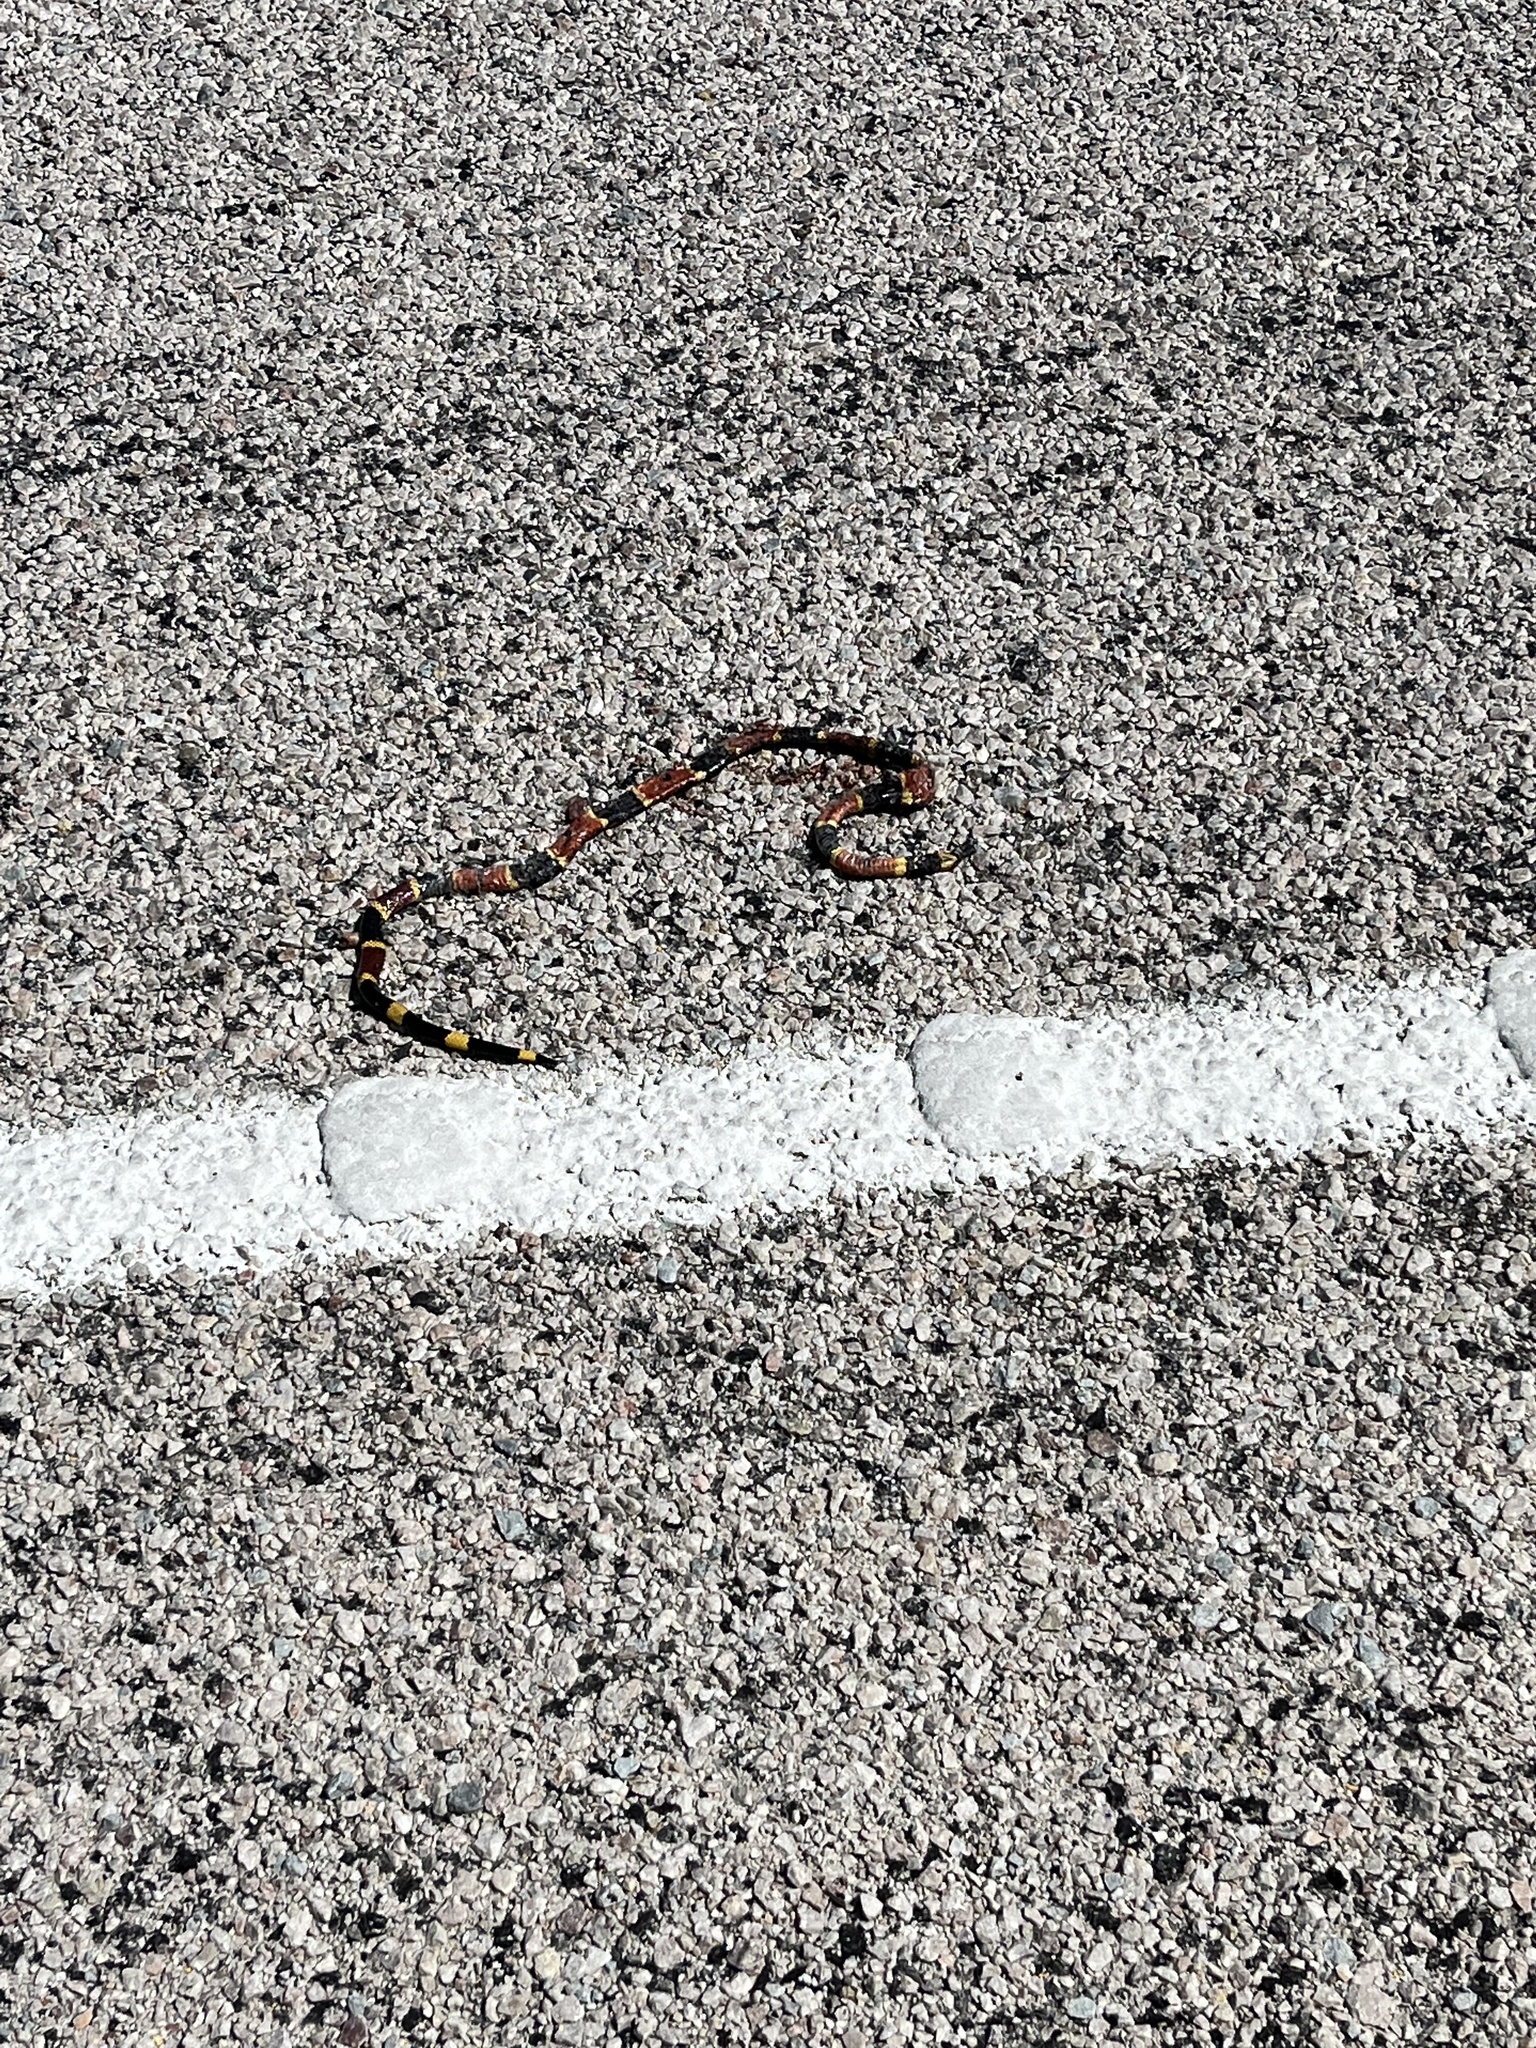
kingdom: Animalia
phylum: Chordata
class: Squamata
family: Elapidae
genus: Micrurus
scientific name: Micrurus tener
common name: Texas coral snake
